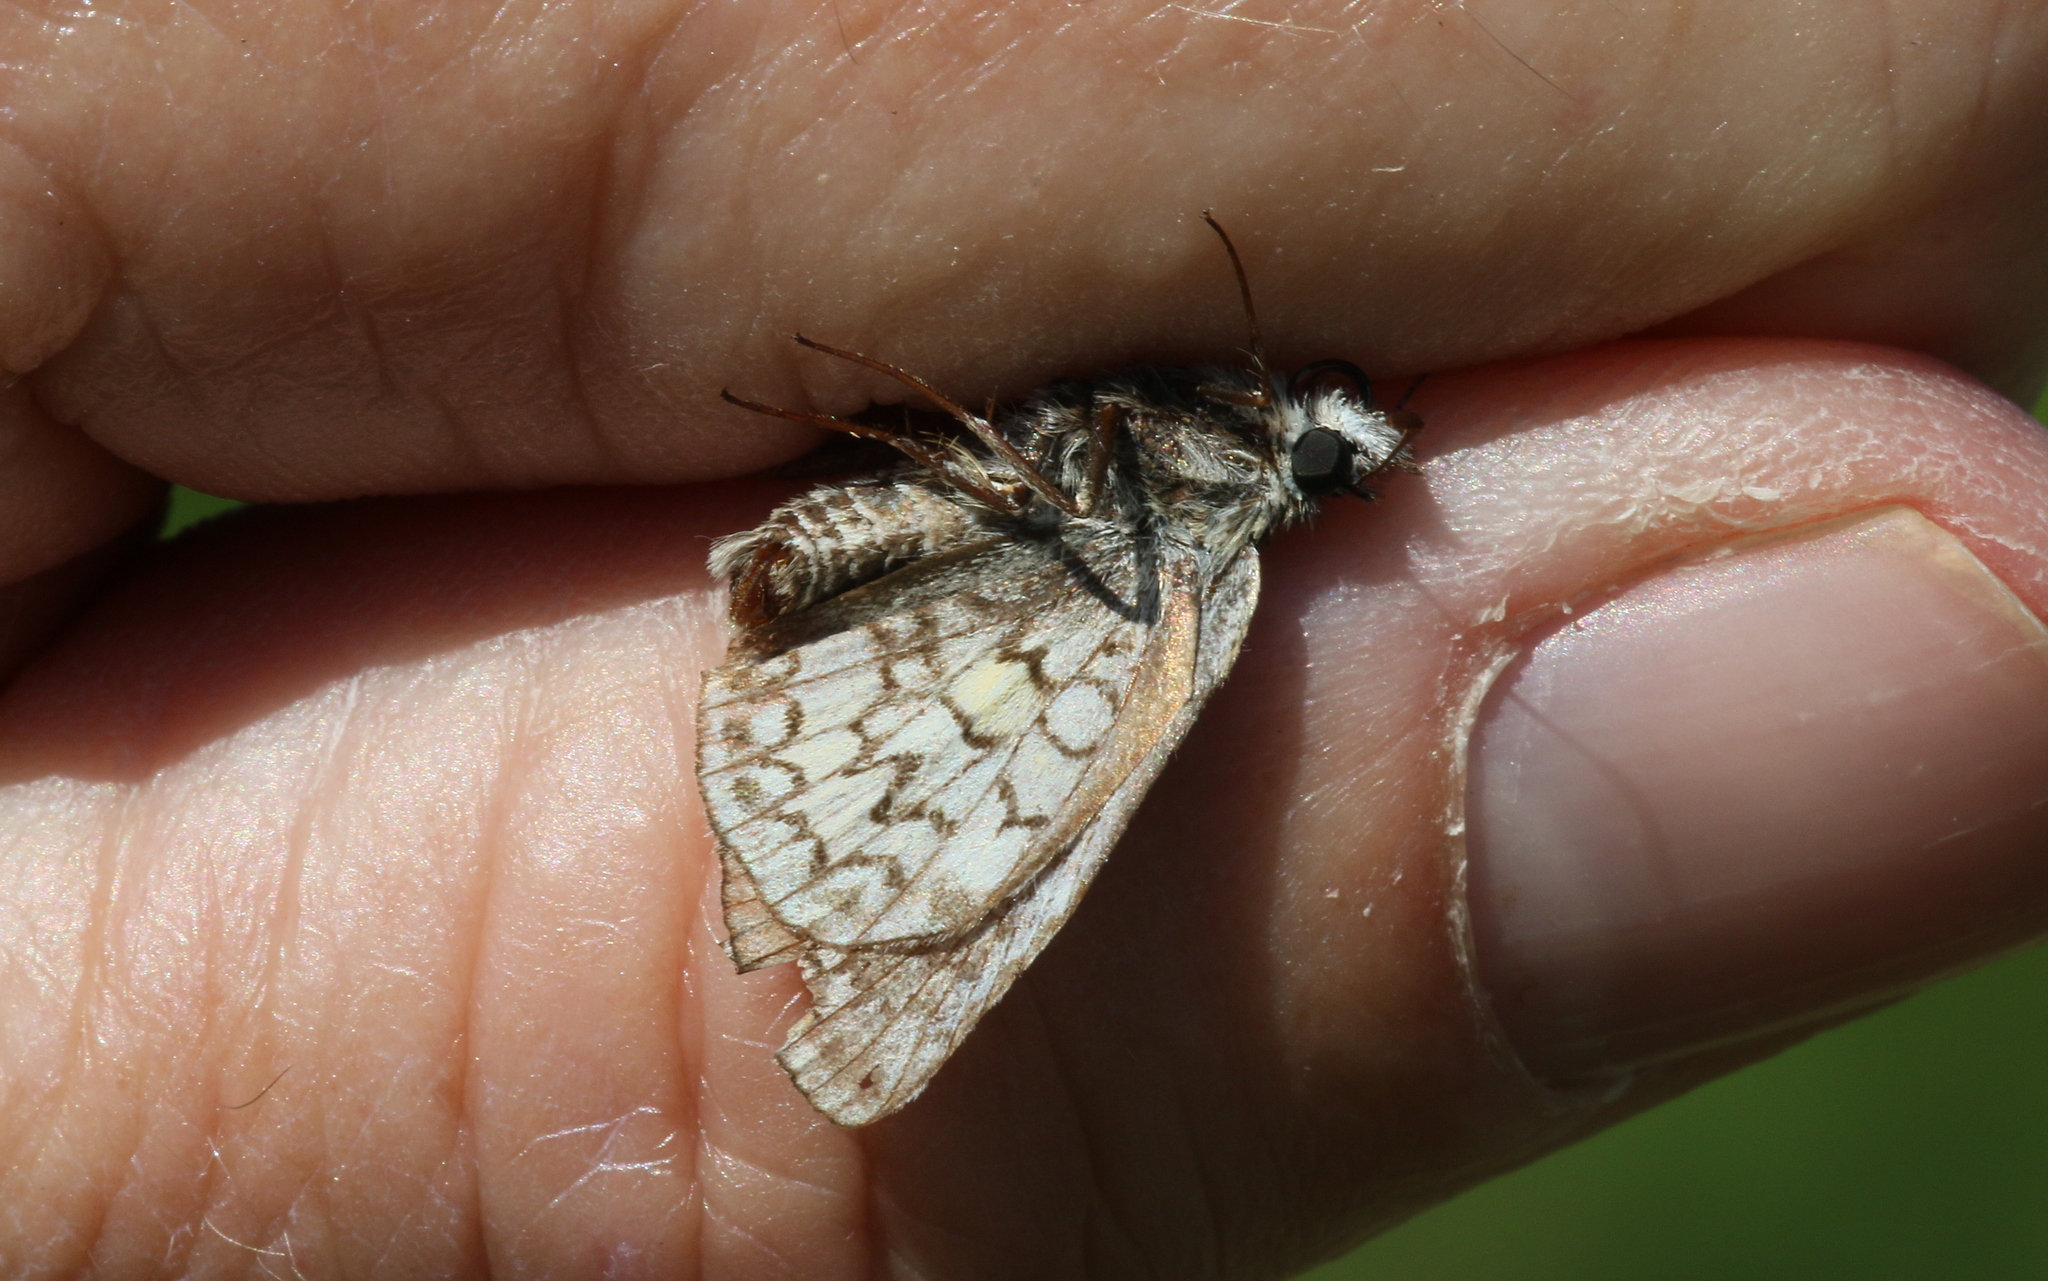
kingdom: Animalia
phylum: Arthropoda
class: Insecta
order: Lepidoptera
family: Hesperiidae
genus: Pyrgus
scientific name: Pyrgus sidae
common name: Yellow-banded skipper
